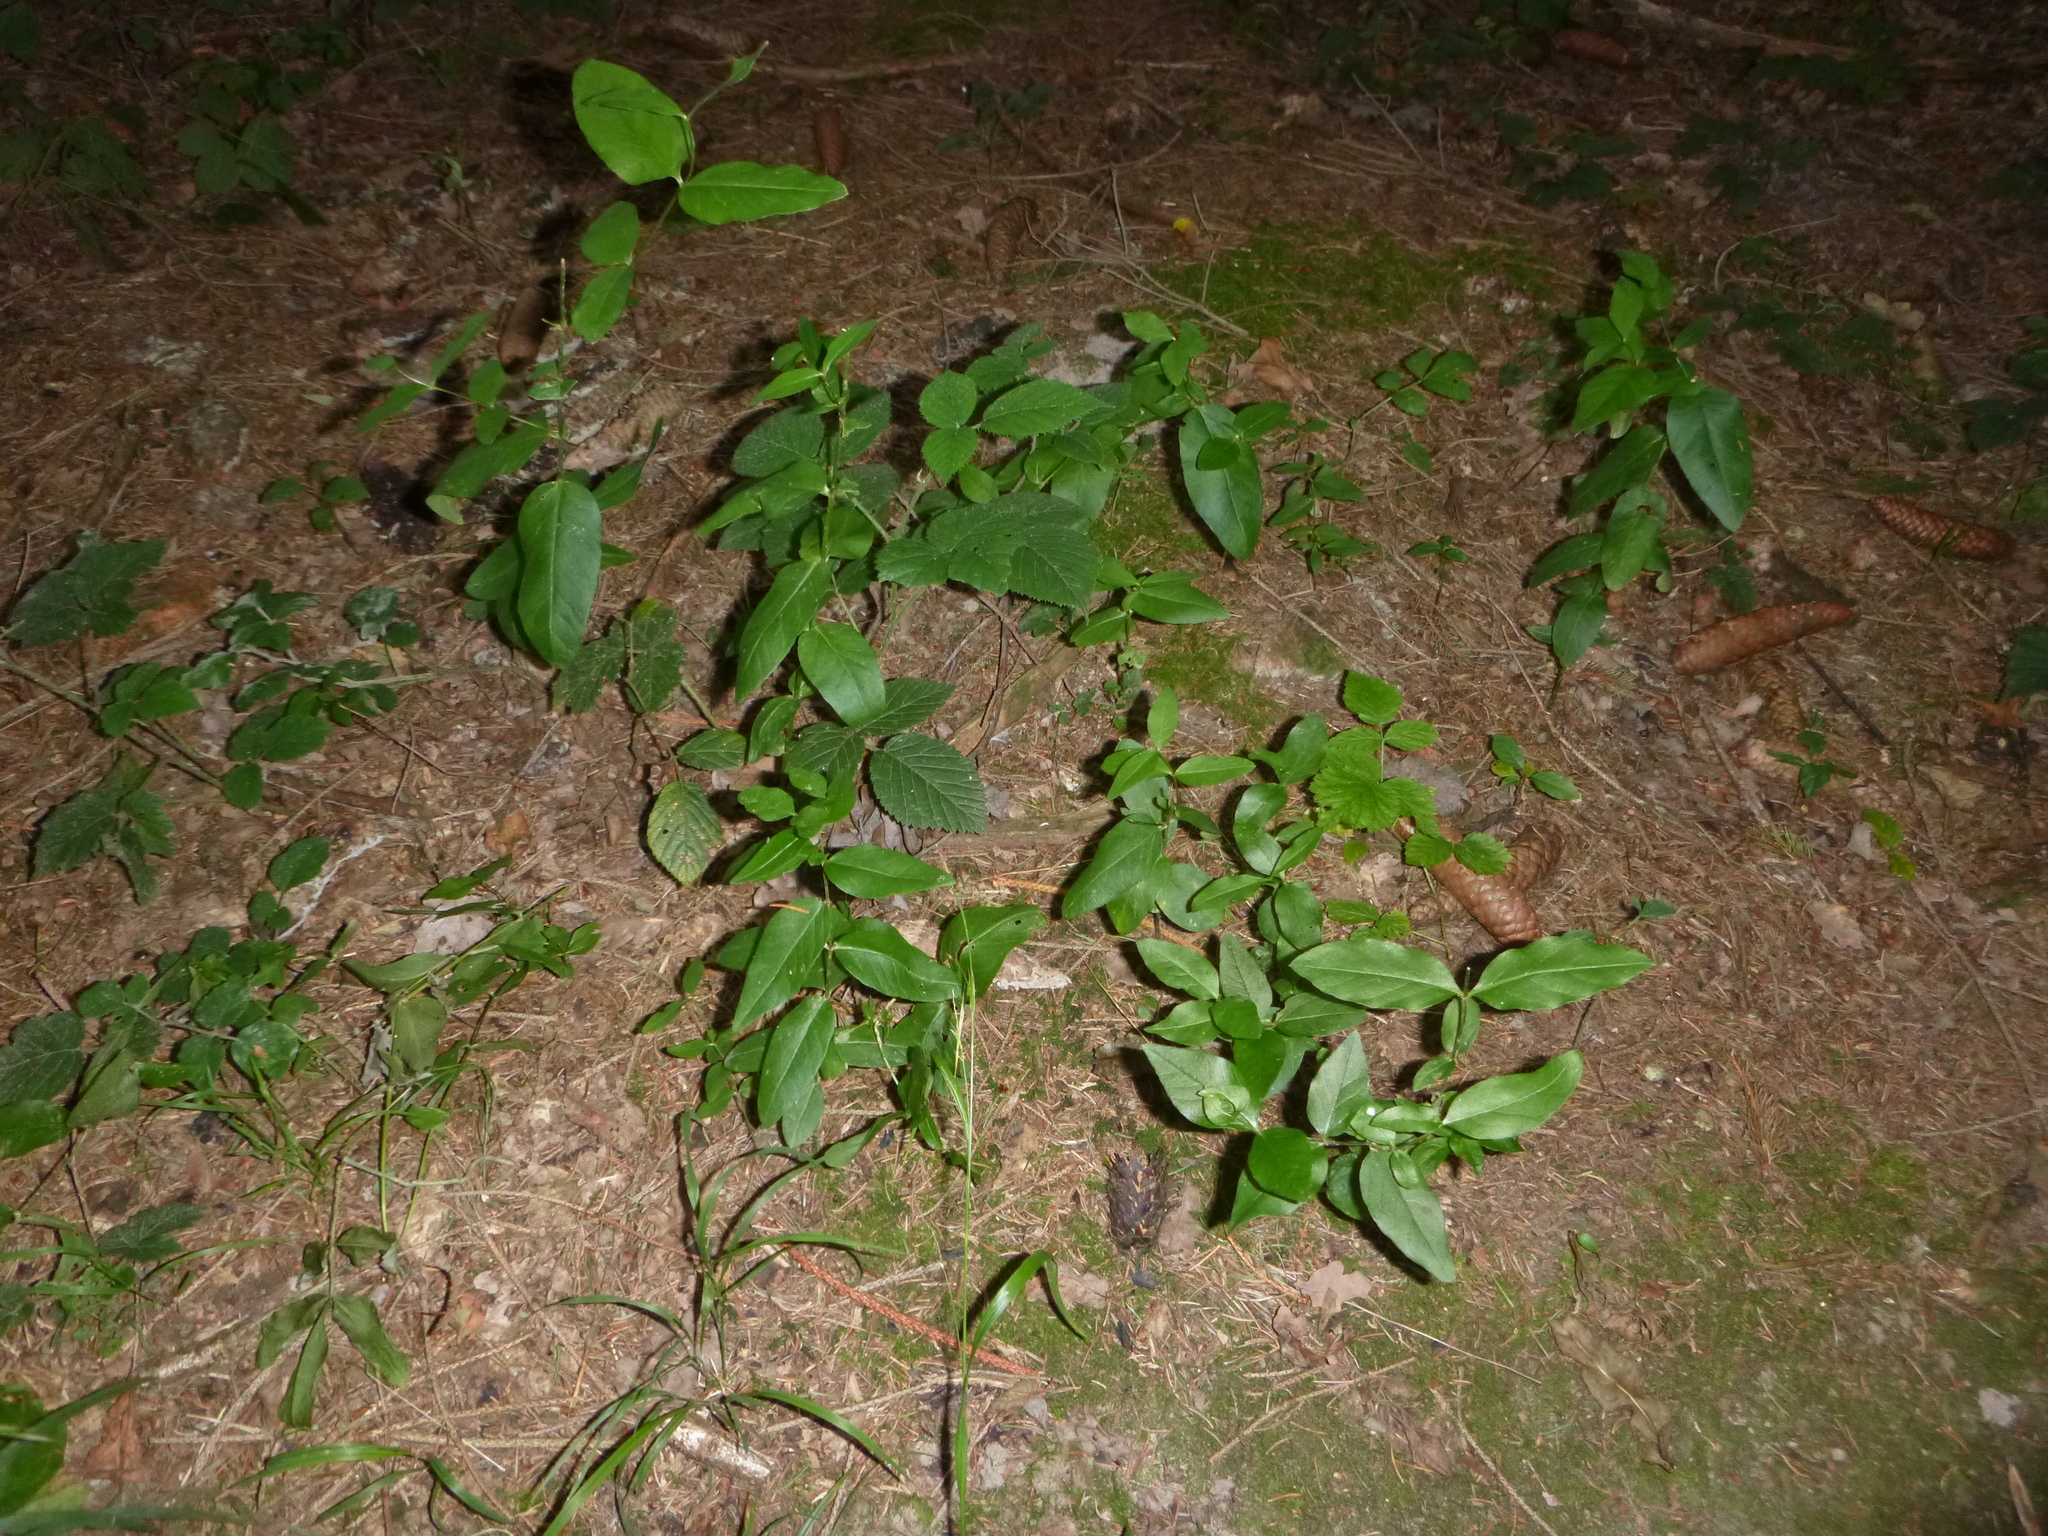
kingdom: Plantae
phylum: Tracheophyta
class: Magnoliopsida
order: Ericales
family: Primulaceae
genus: Lysimachia
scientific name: Lysimachia vulgaris
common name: Yellow loosestrife
